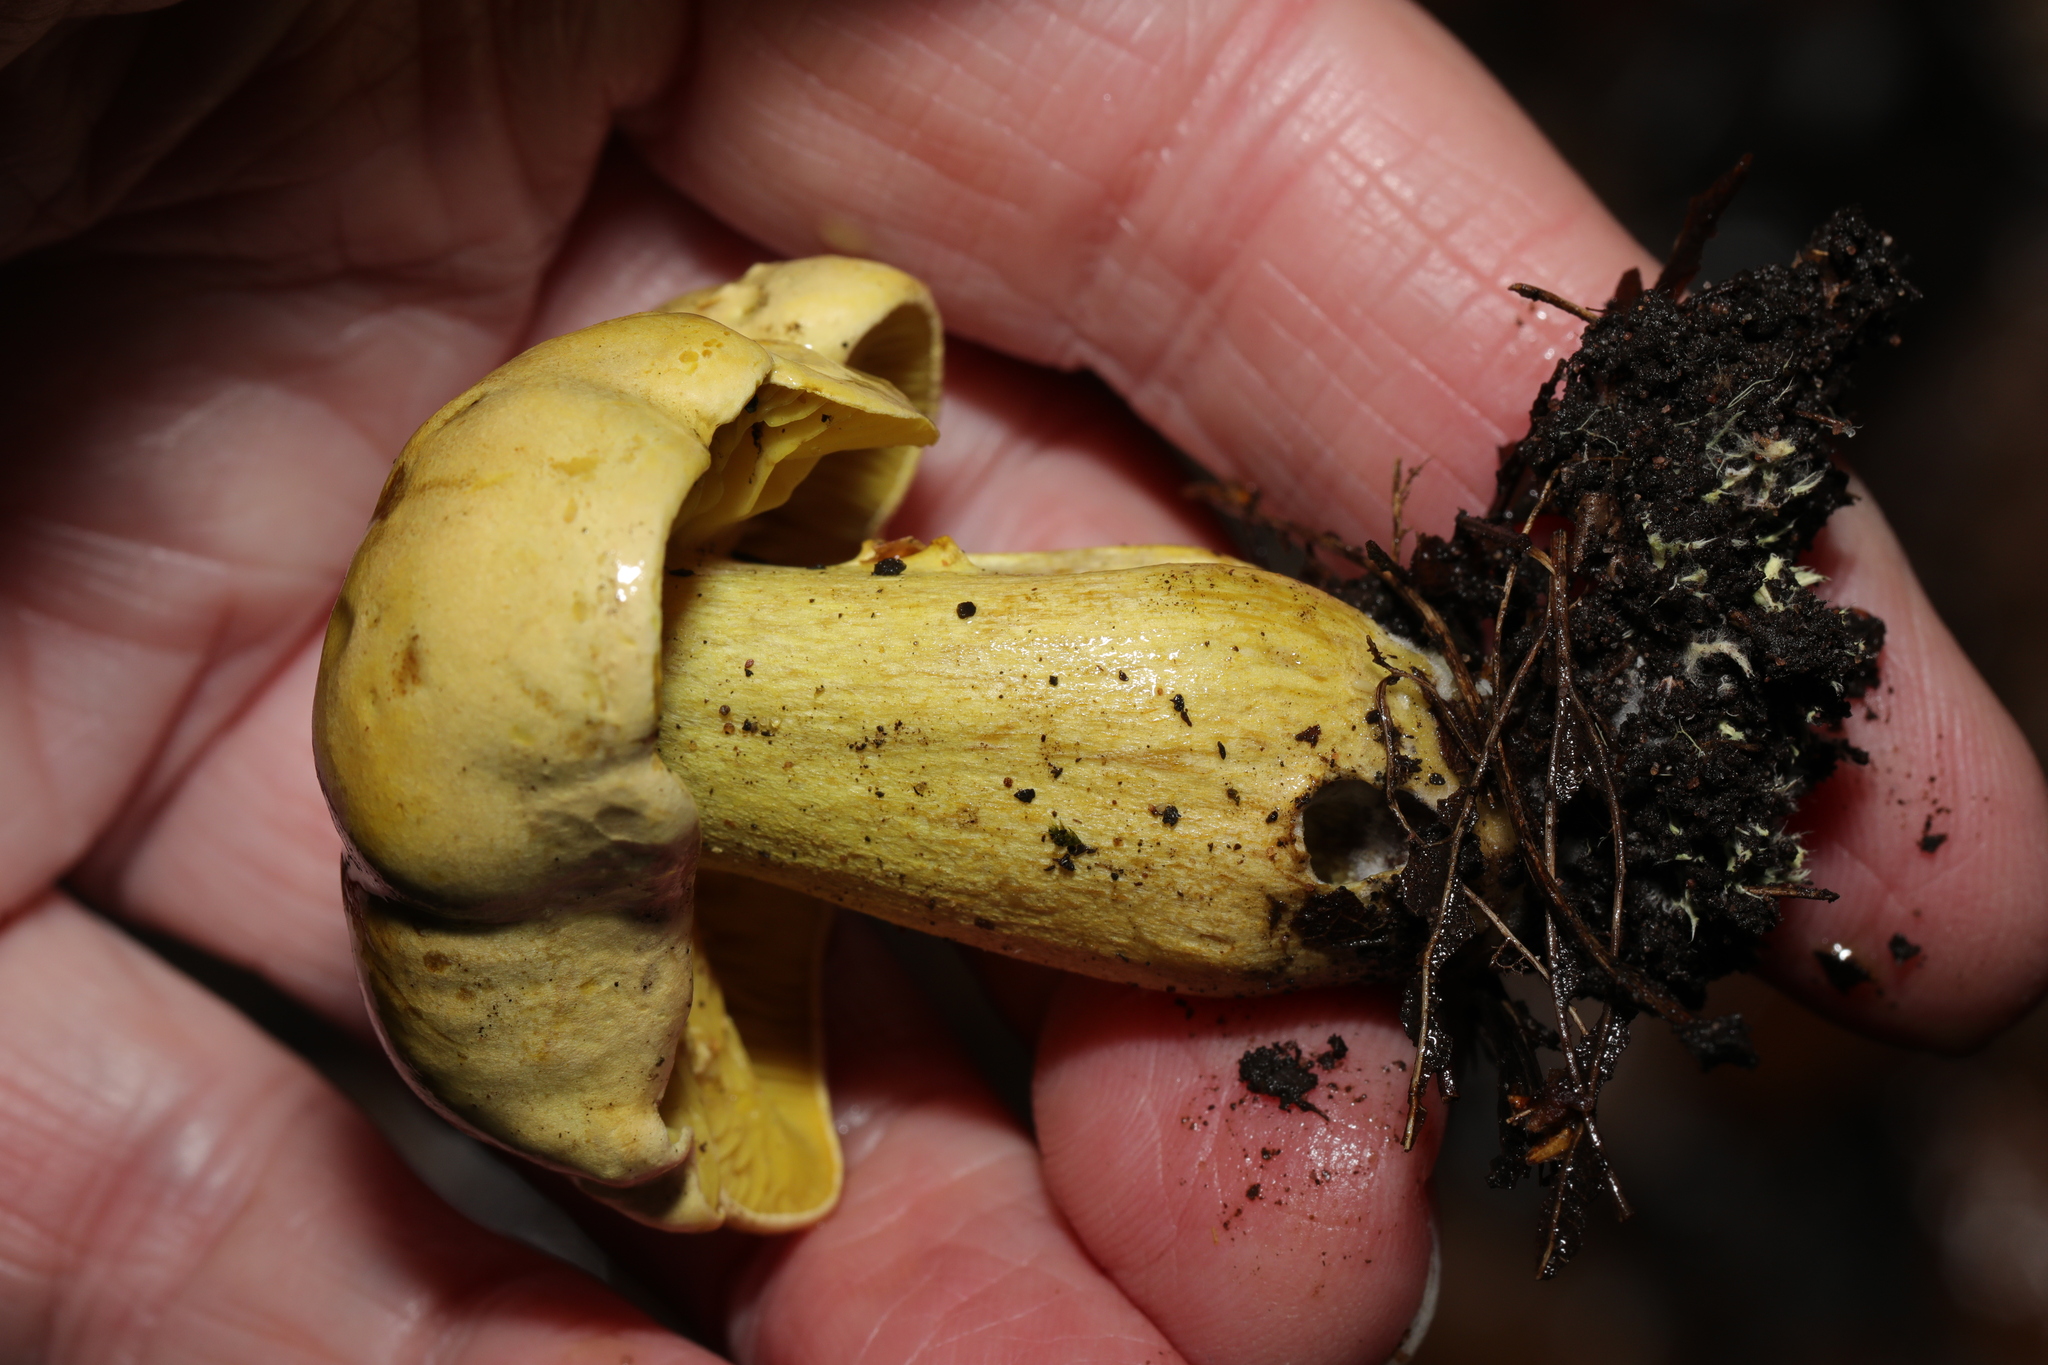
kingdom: Fungi
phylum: Basidiomycota
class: Agaricomycetes
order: Agaricales
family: Tricholomataceae
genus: Tricholoma
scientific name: Tricholoma sulphureum
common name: Stinky knight
